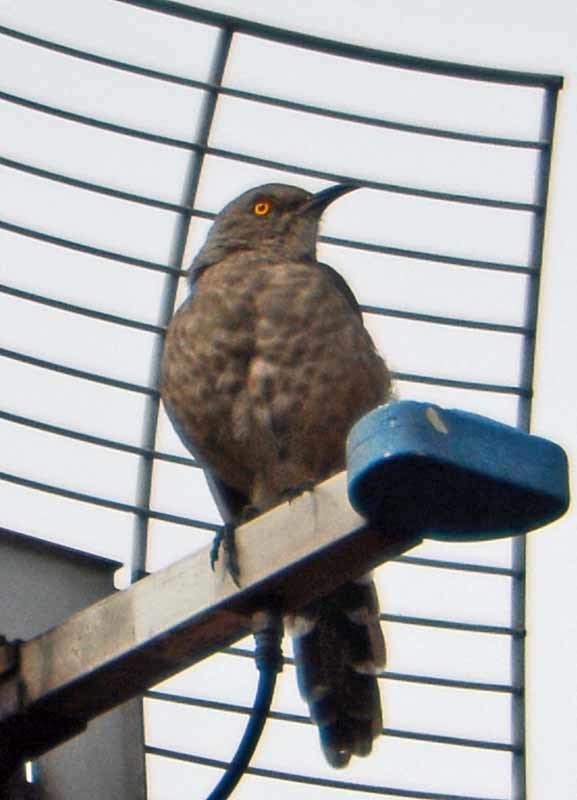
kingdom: Animalia
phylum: Chordata
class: Aves
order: Passeriformes
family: Mimidae
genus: Toxostoma
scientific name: Toxostoma curvirostre
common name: Curve-billed thrasher
